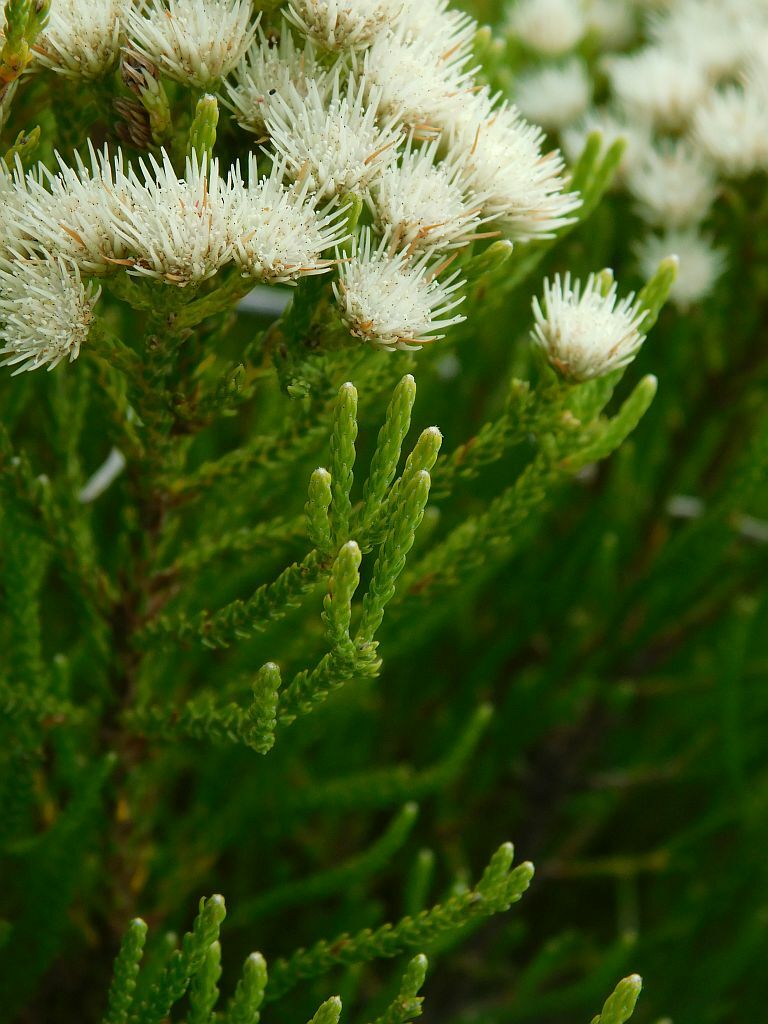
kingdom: Plantae
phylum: Tracheophyta
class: Magnoliopsida
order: Bruniales
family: Bruniaceae
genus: Brunia
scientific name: Brunia paleacea
